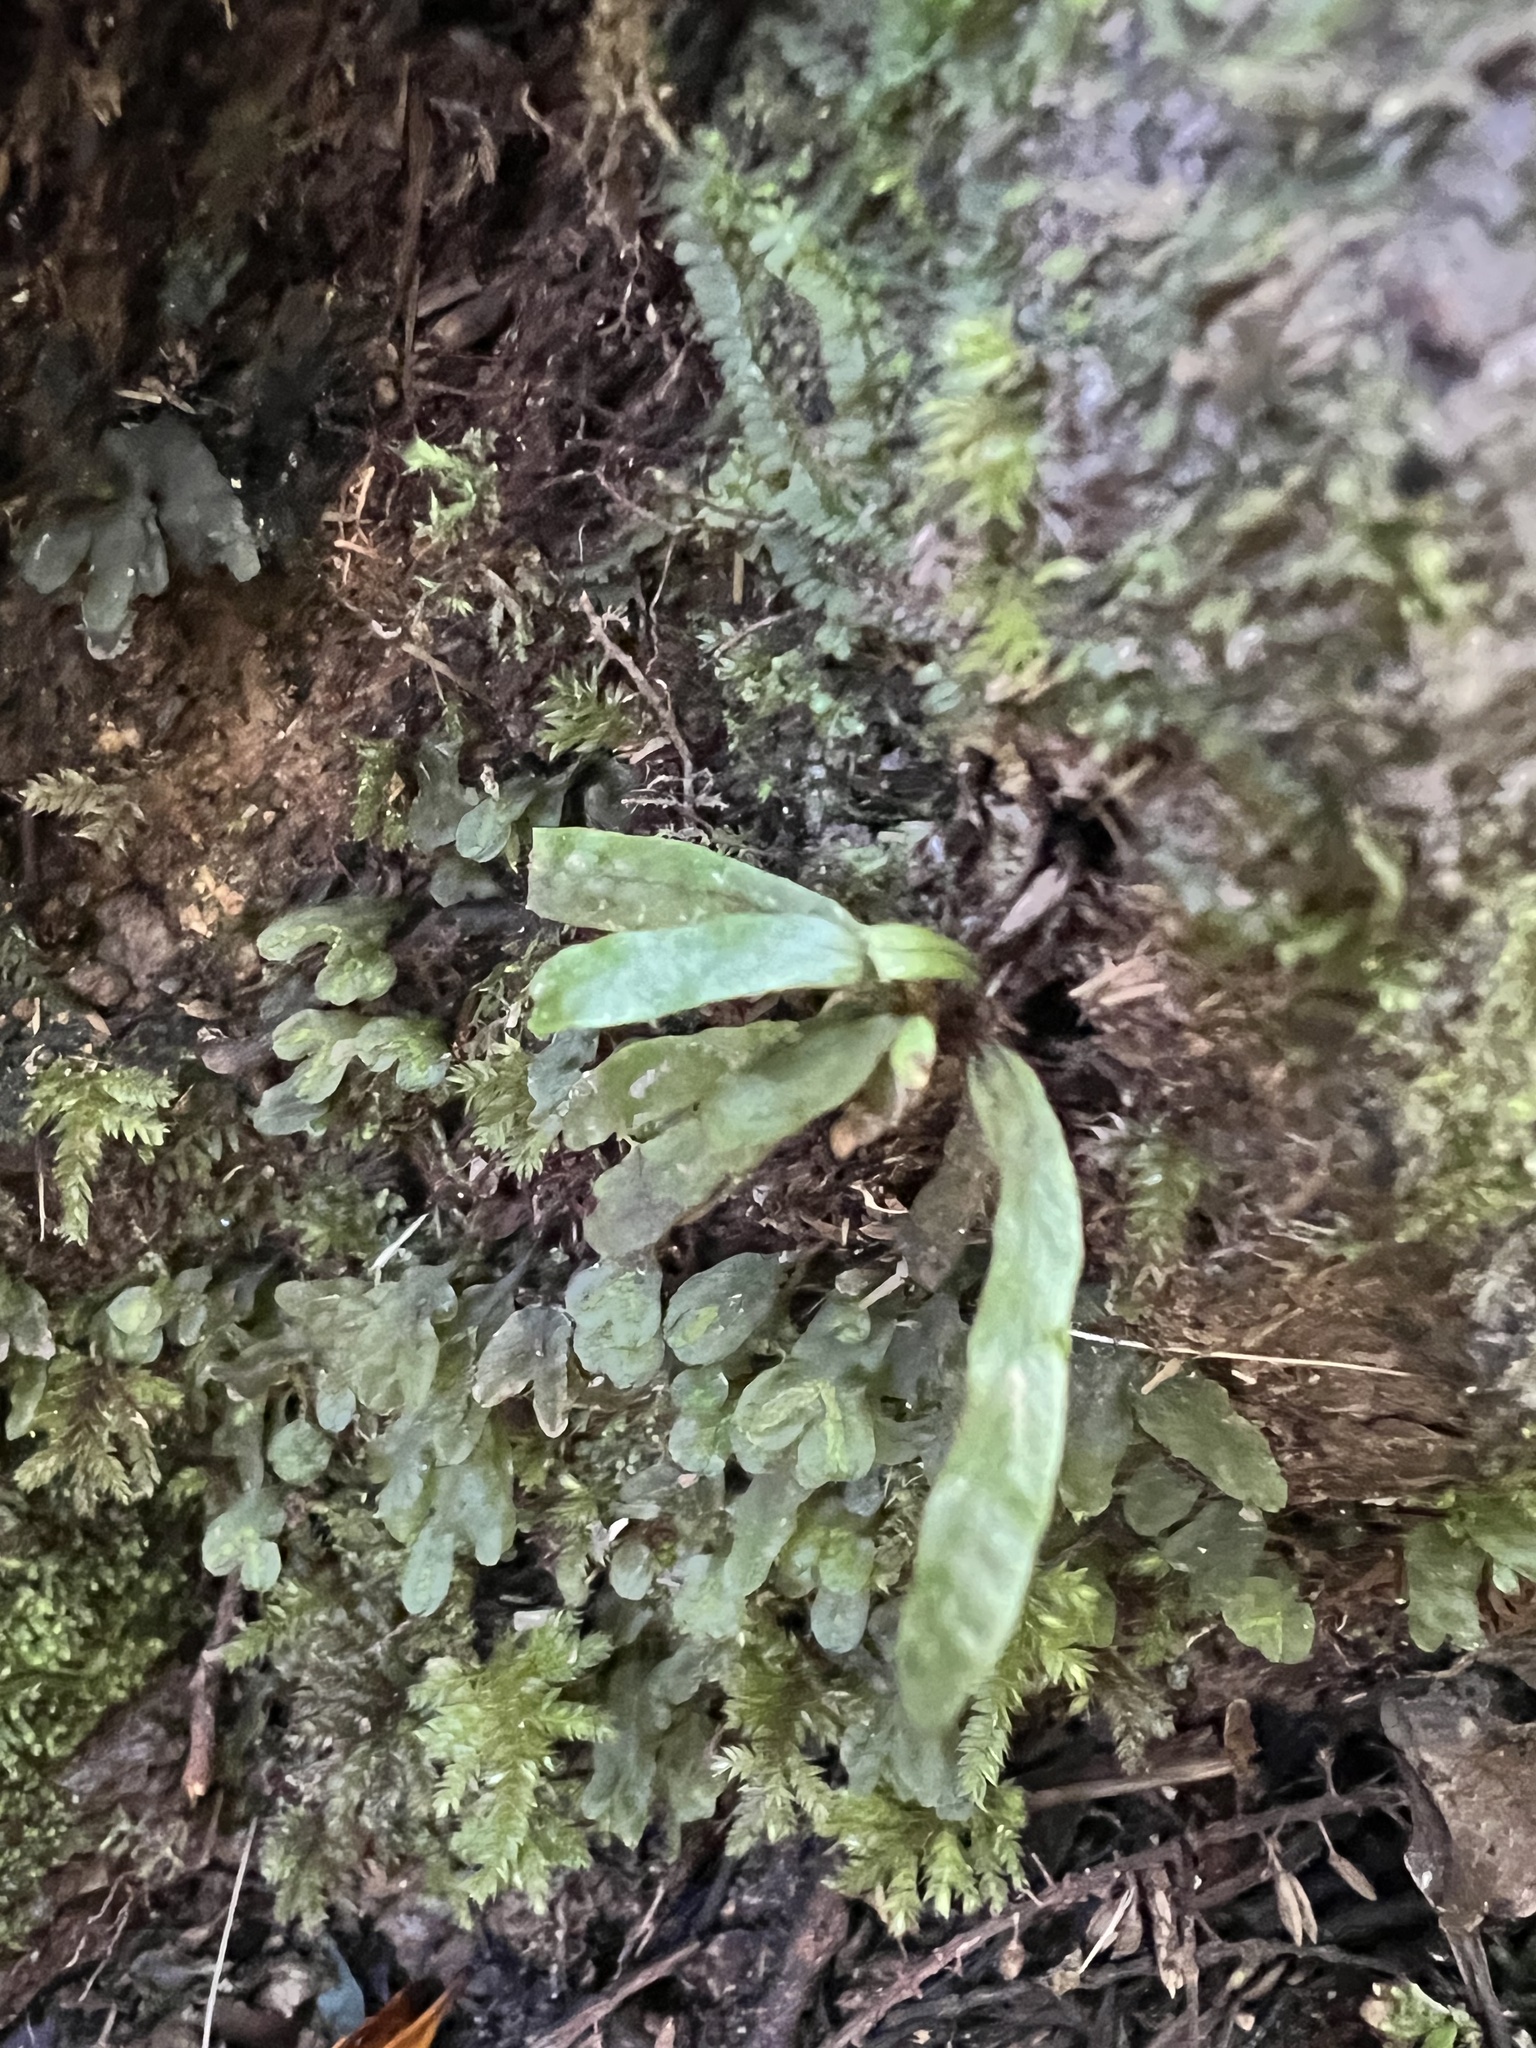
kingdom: Plantae
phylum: Tracheophyta
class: Polypodiopsida
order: Polypodiales
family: Polypodiaceae
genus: Notogrammitis
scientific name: Notogrammitis ciliata
